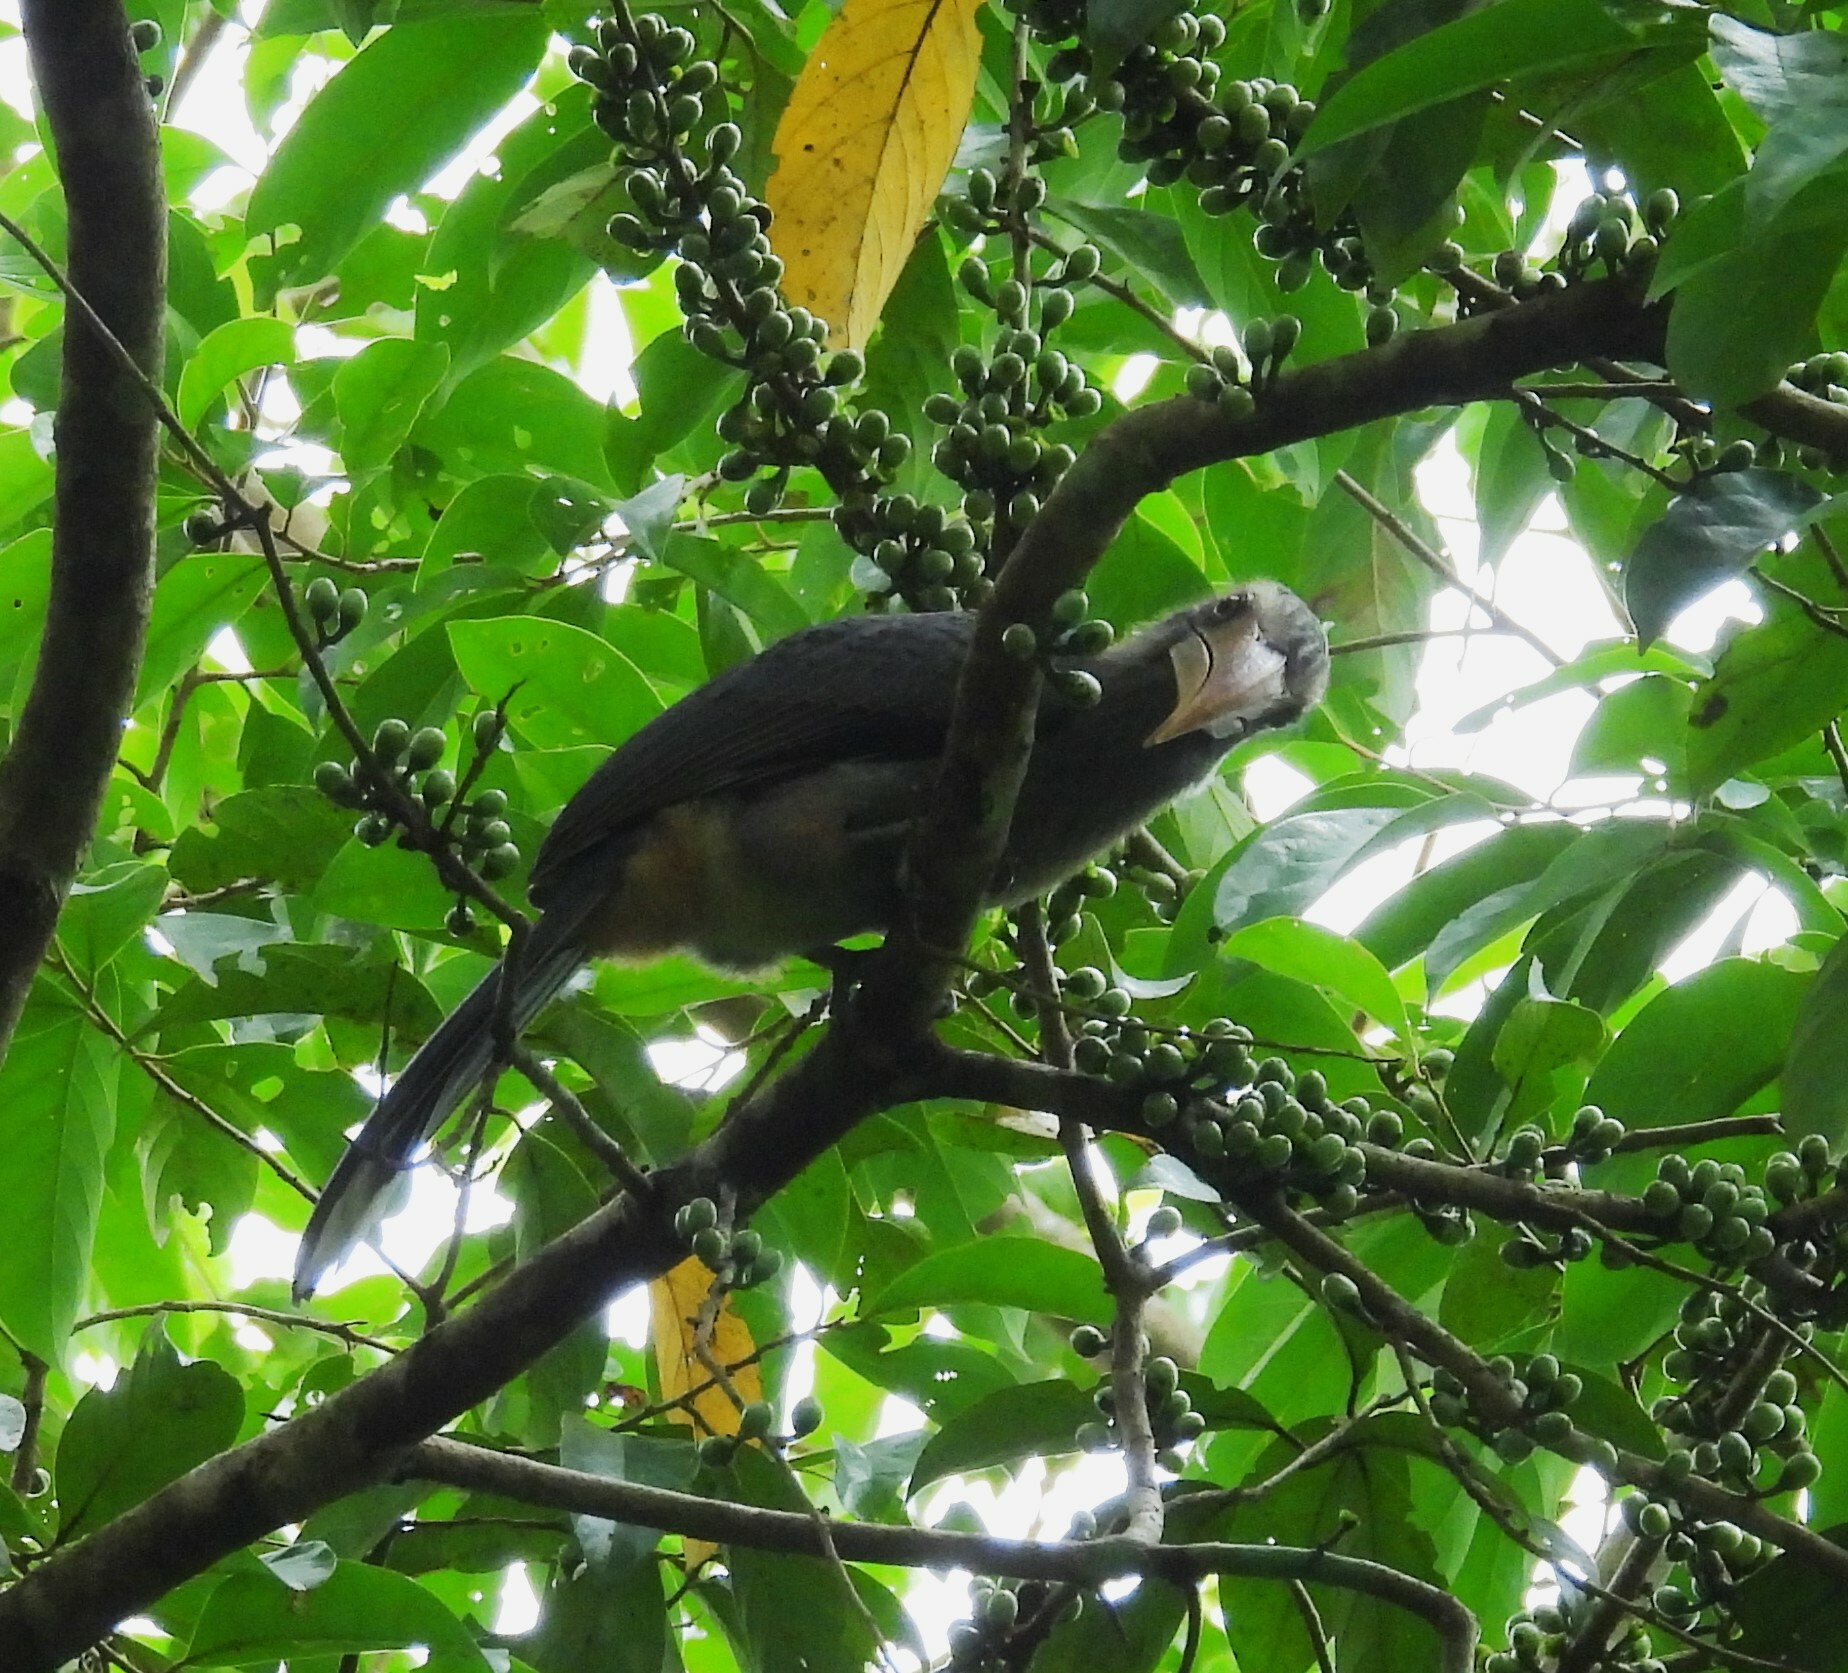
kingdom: Animalia
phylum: Chordata
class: Aves
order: Bucerotiformes
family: Bucerotidae
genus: Ocyceros
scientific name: Ocyceros griseus
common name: Malabar grey hornbill
